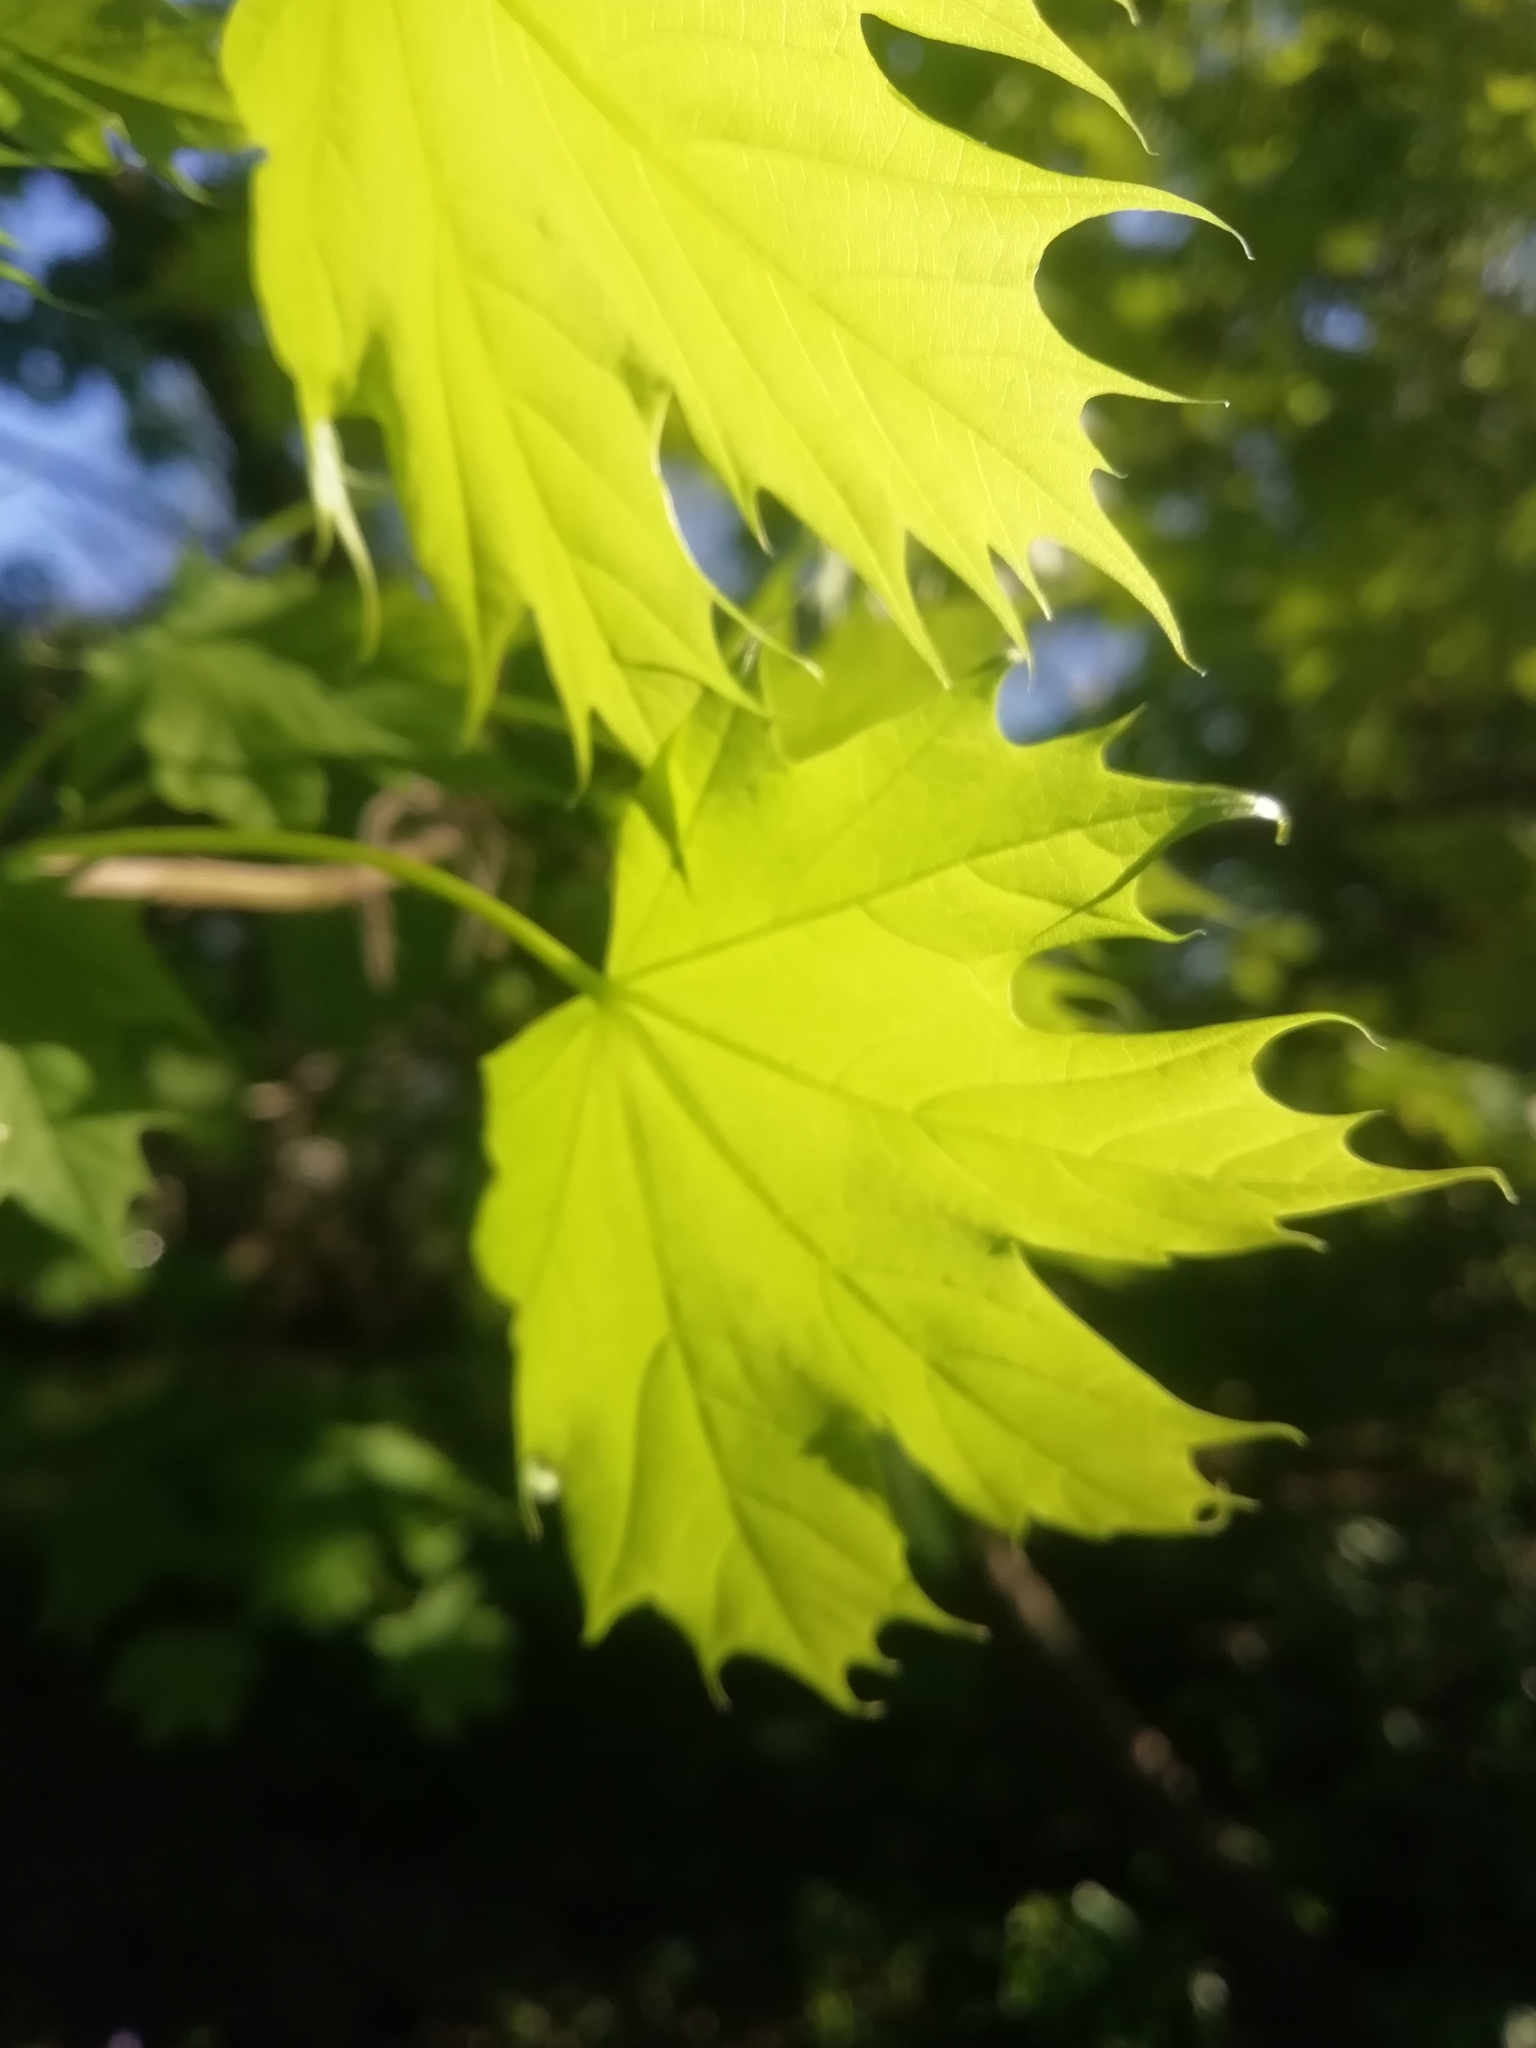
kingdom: Plantae
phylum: Tracheophyta
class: Magnoliopsida
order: Sapindales
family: Sapindaceae
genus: Acer
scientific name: Acer platanoides
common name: Norway maple
